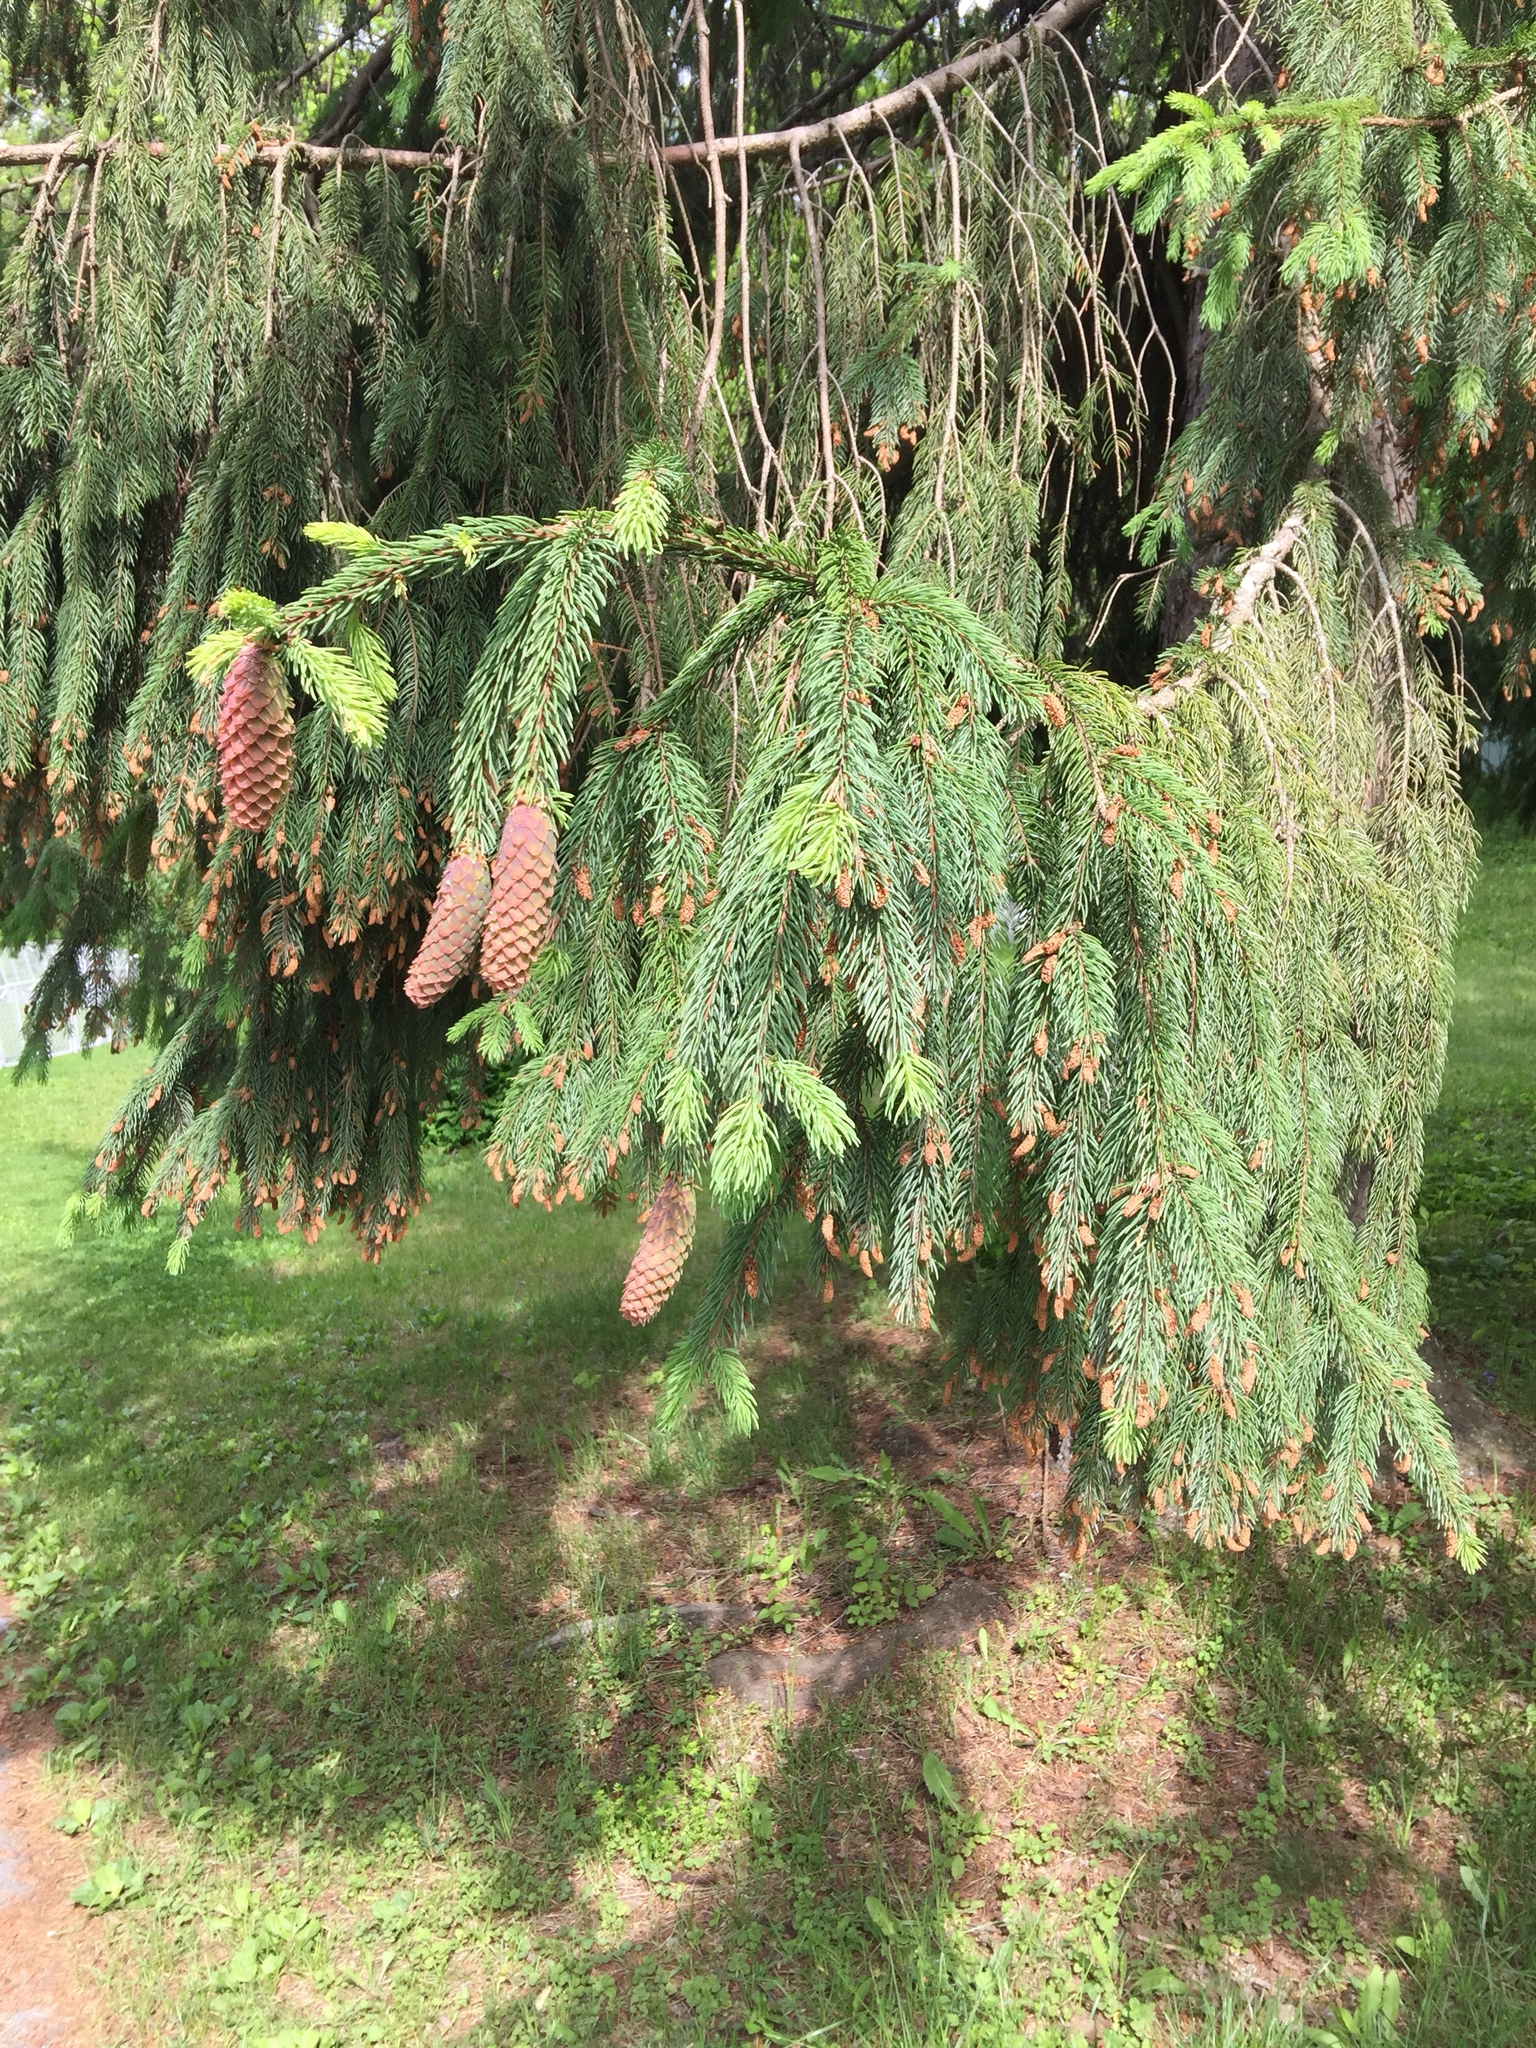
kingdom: Plantae
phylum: Tracheophyta
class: Pinopsida
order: Pinales
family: Pinaceae
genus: Picea
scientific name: Picea abies
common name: Norway spruce
